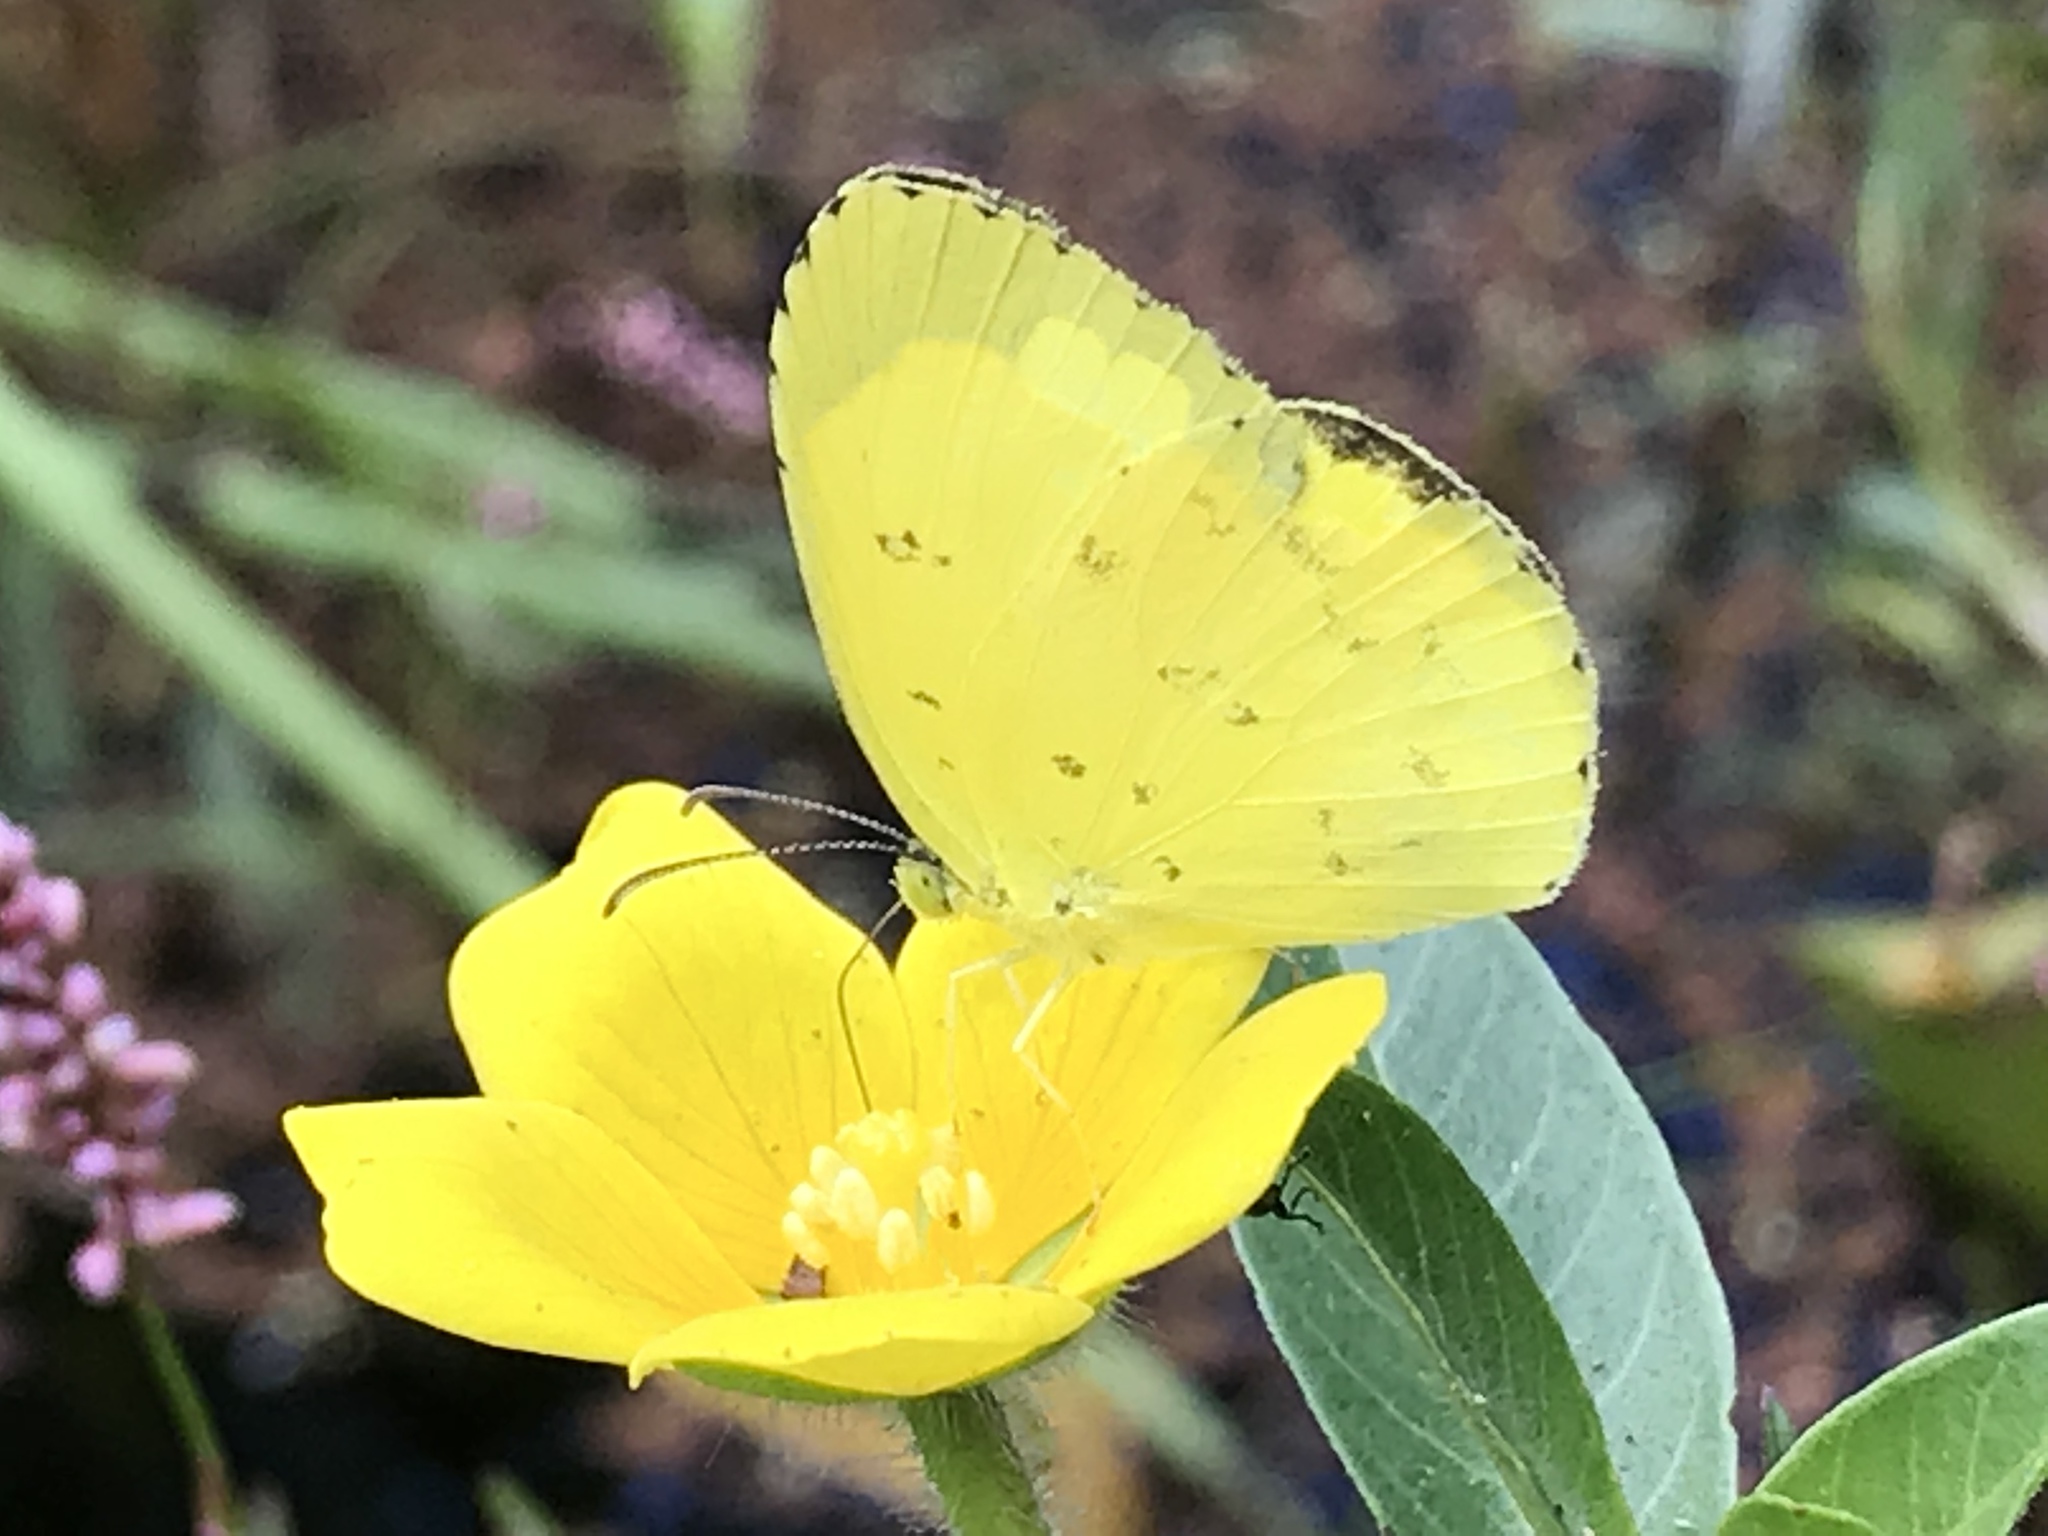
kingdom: Animalia
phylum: Arthropoda
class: Insecta
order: Lepidoptera
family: Pieridae
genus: Eurema
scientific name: Eurema hecabe
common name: Pale grass yellow
